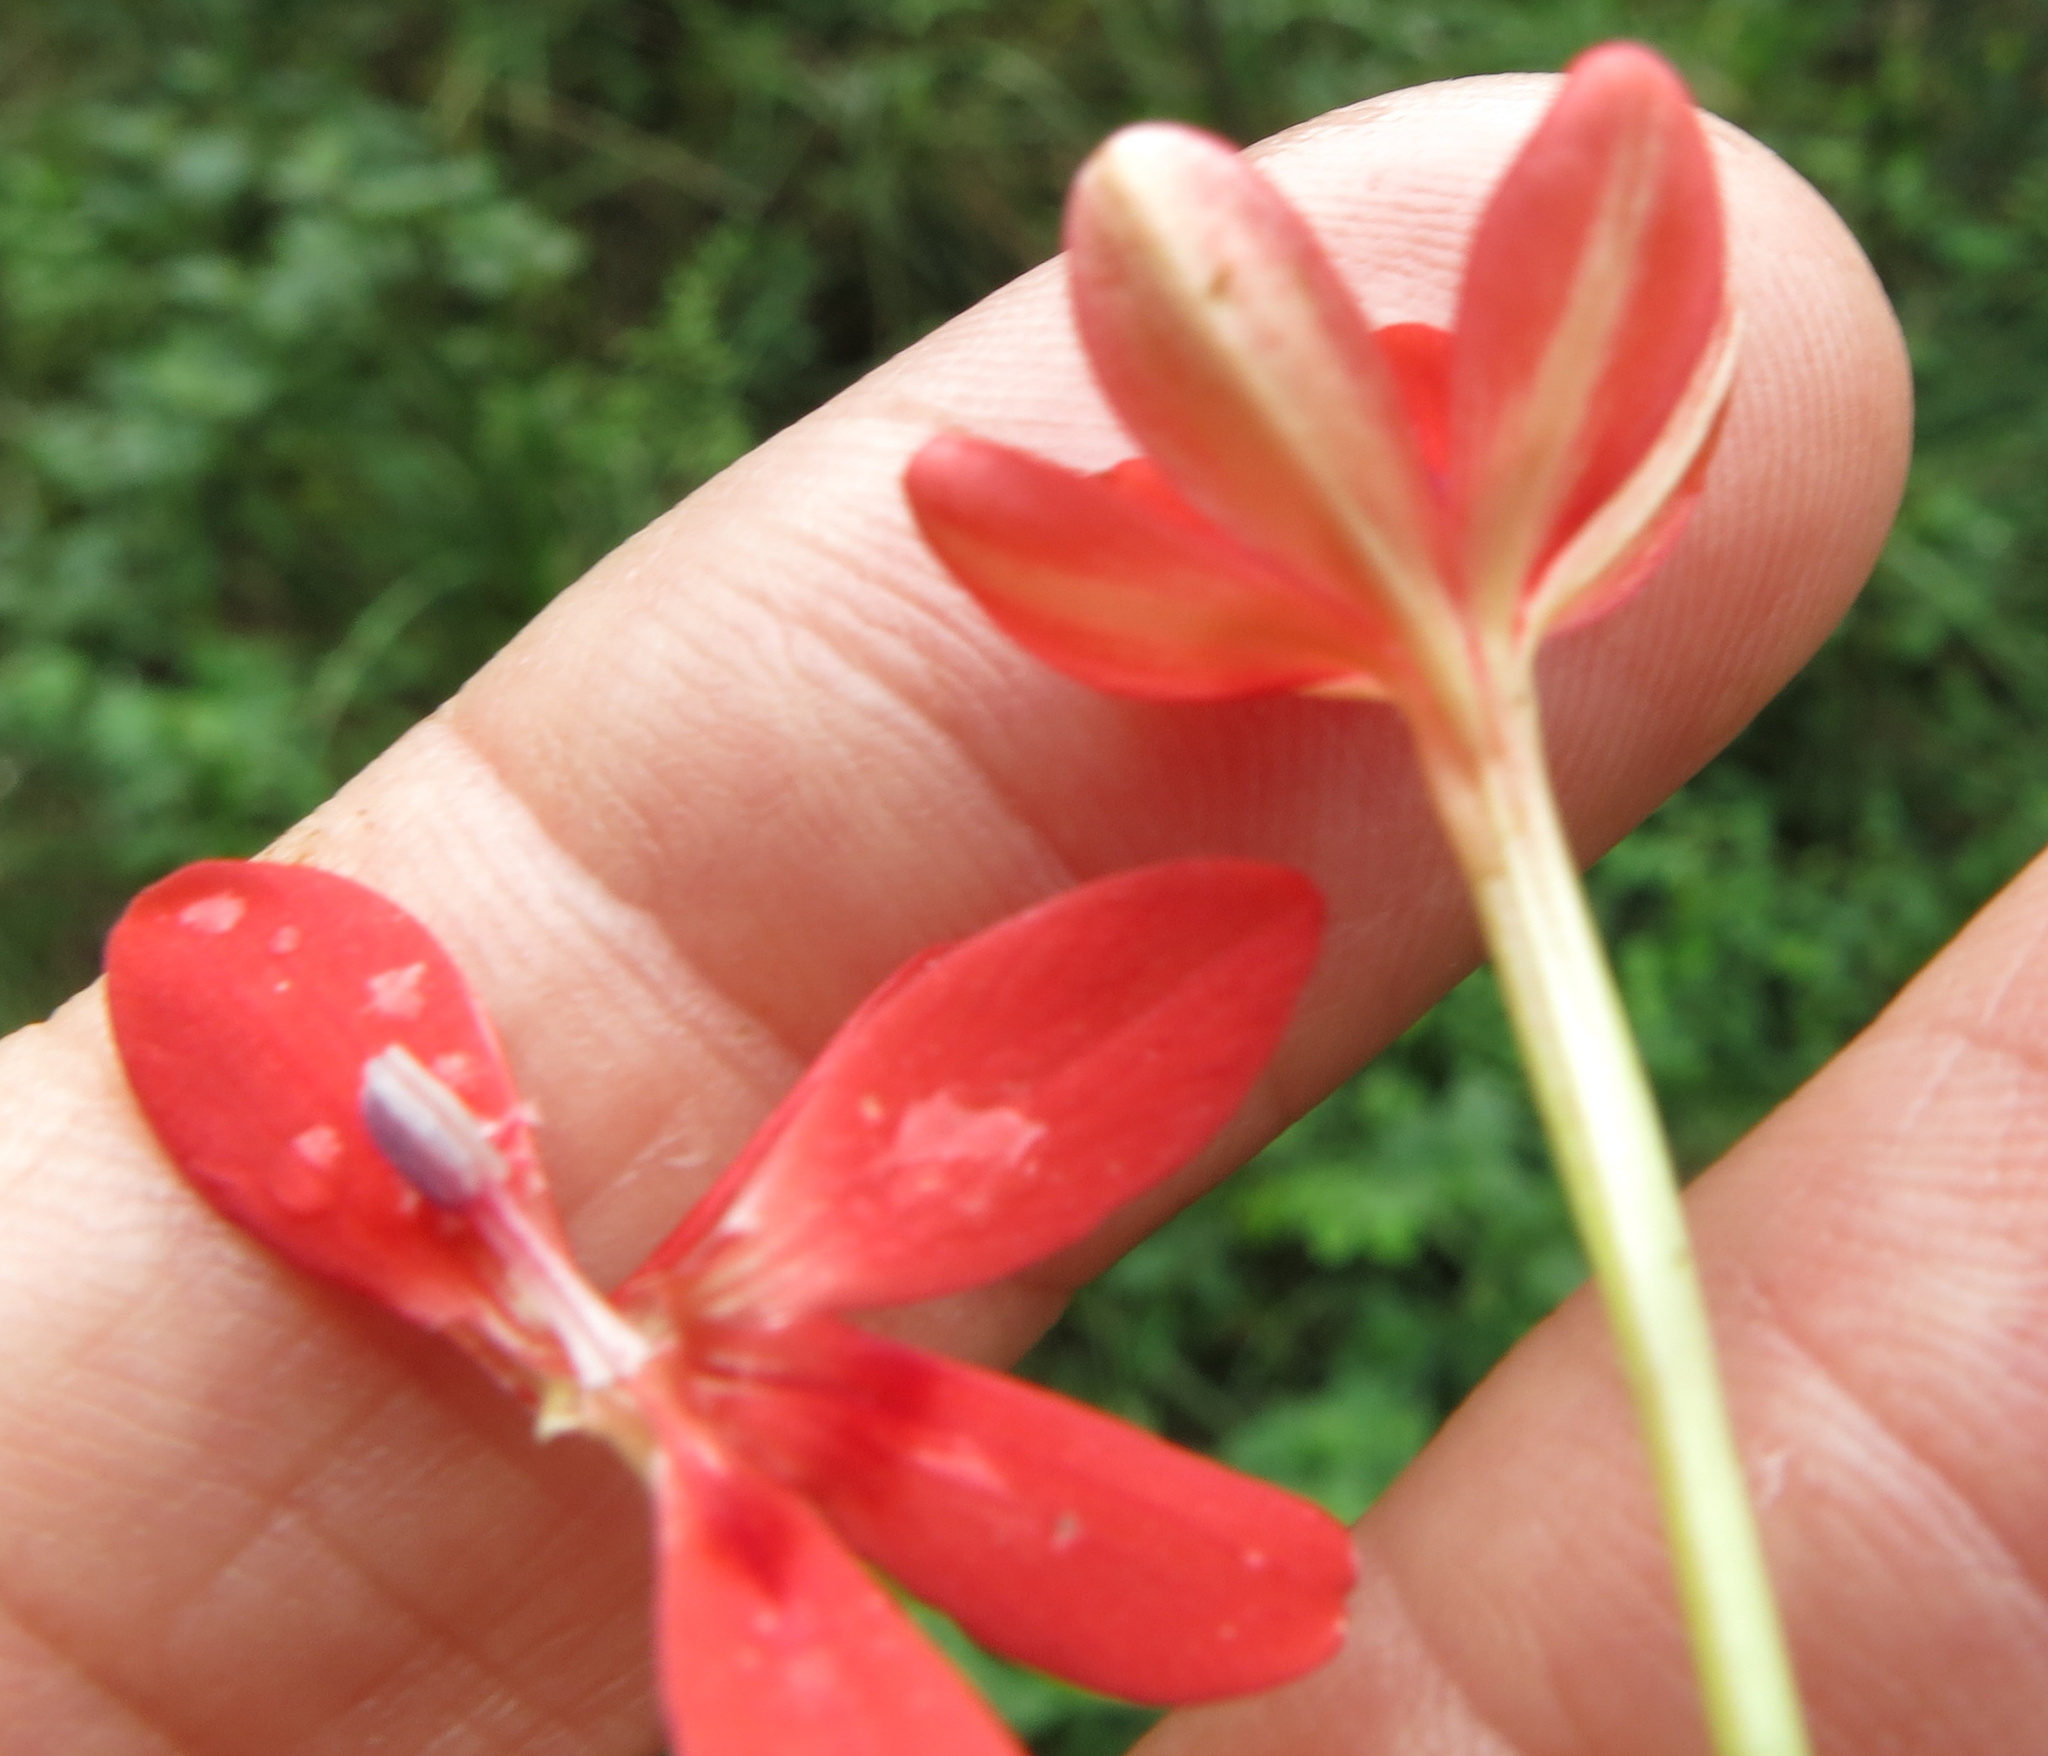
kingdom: Plantae
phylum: Tracheophyta
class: Liliopsida
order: Asparagales
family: Iridaceae
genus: Freesia
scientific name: Freesia laxa
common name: False freesia
